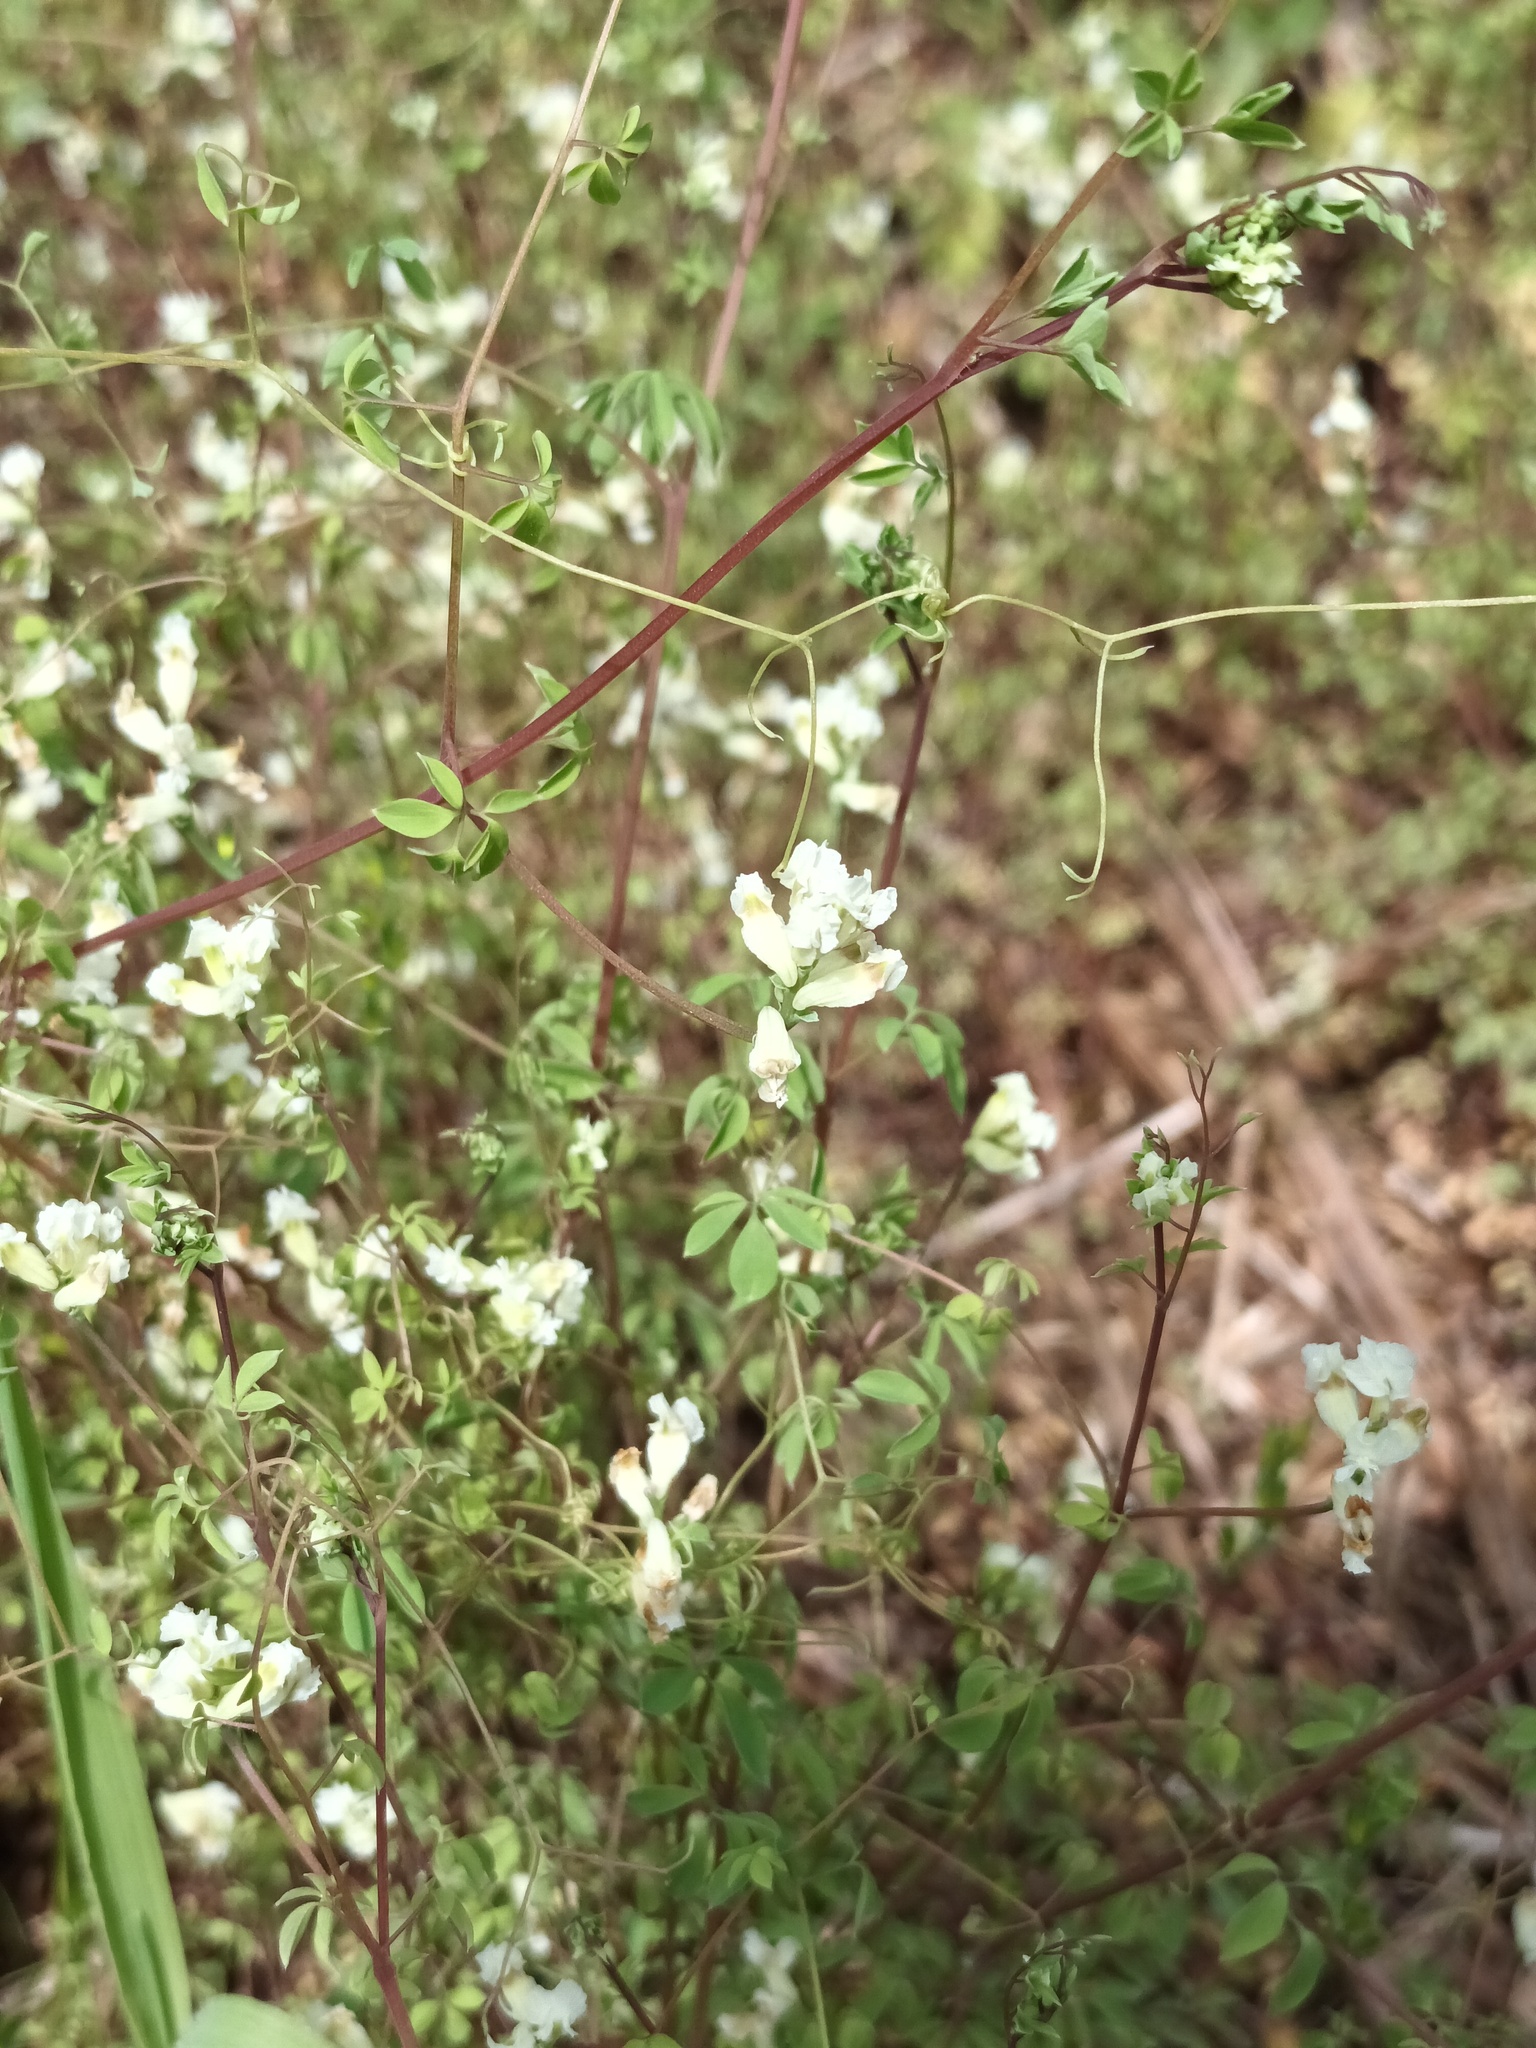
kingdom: Plantae
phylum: Tracheophyta
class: Magnoliopsida
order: Ranunculales
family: Papaveraceae
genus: Ceratocapnos
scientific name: Ceratocapnos claviculata
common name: Climbing corydalis
